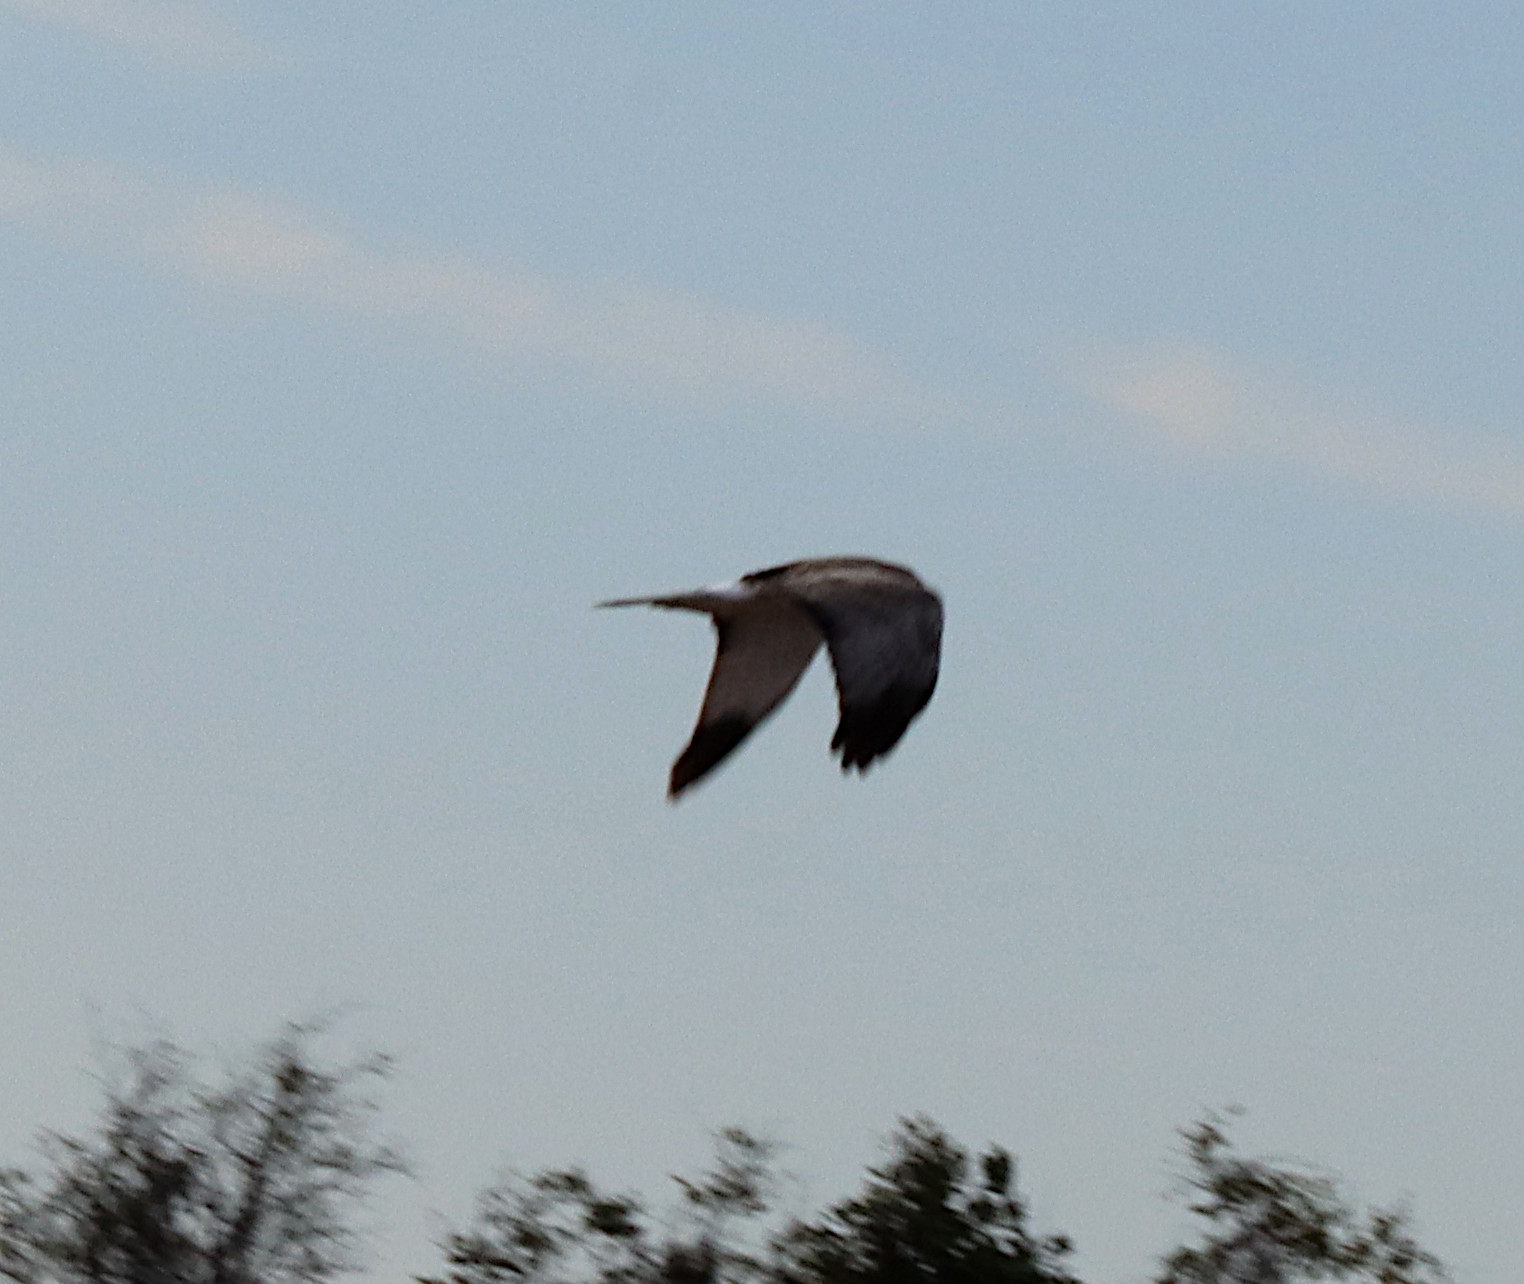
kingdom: Animalia
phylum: Chordata
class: Aves
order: Accipitriformes
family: Accipitridae
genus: Circus
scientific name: Circus cyaneus
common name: Hen harrier
